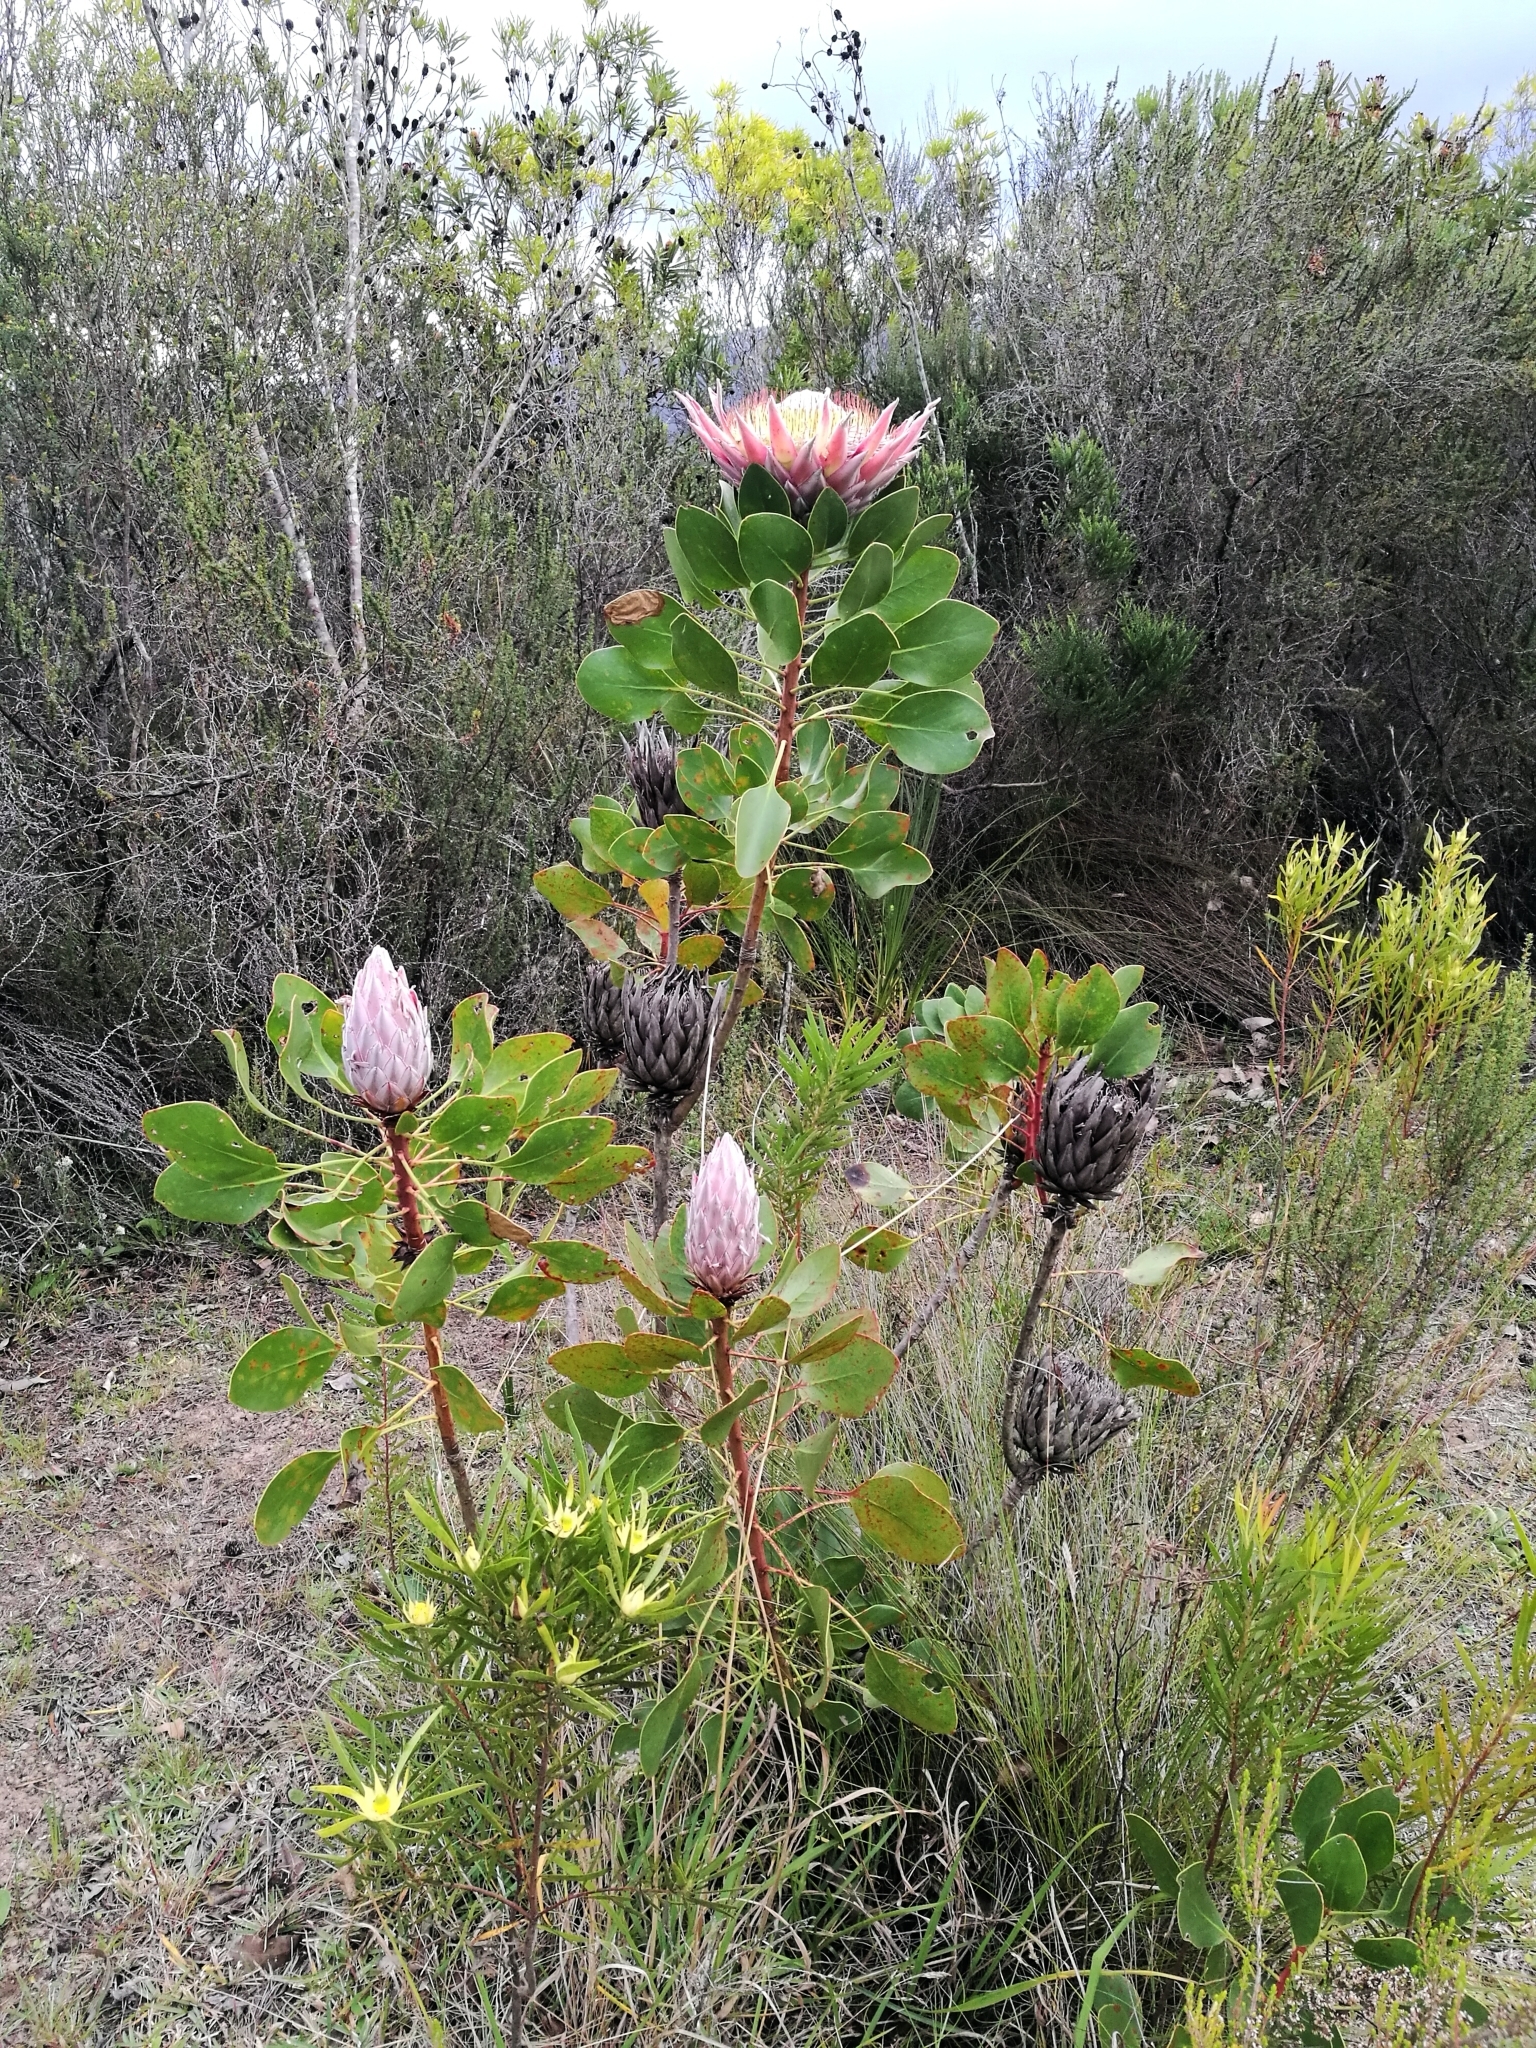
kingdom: Plantae
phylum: Tracheophyta
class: Magnoliopsida
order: Proteales
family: Proteaceae
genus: Protea
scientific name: Protea cynaroides
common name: King protea
